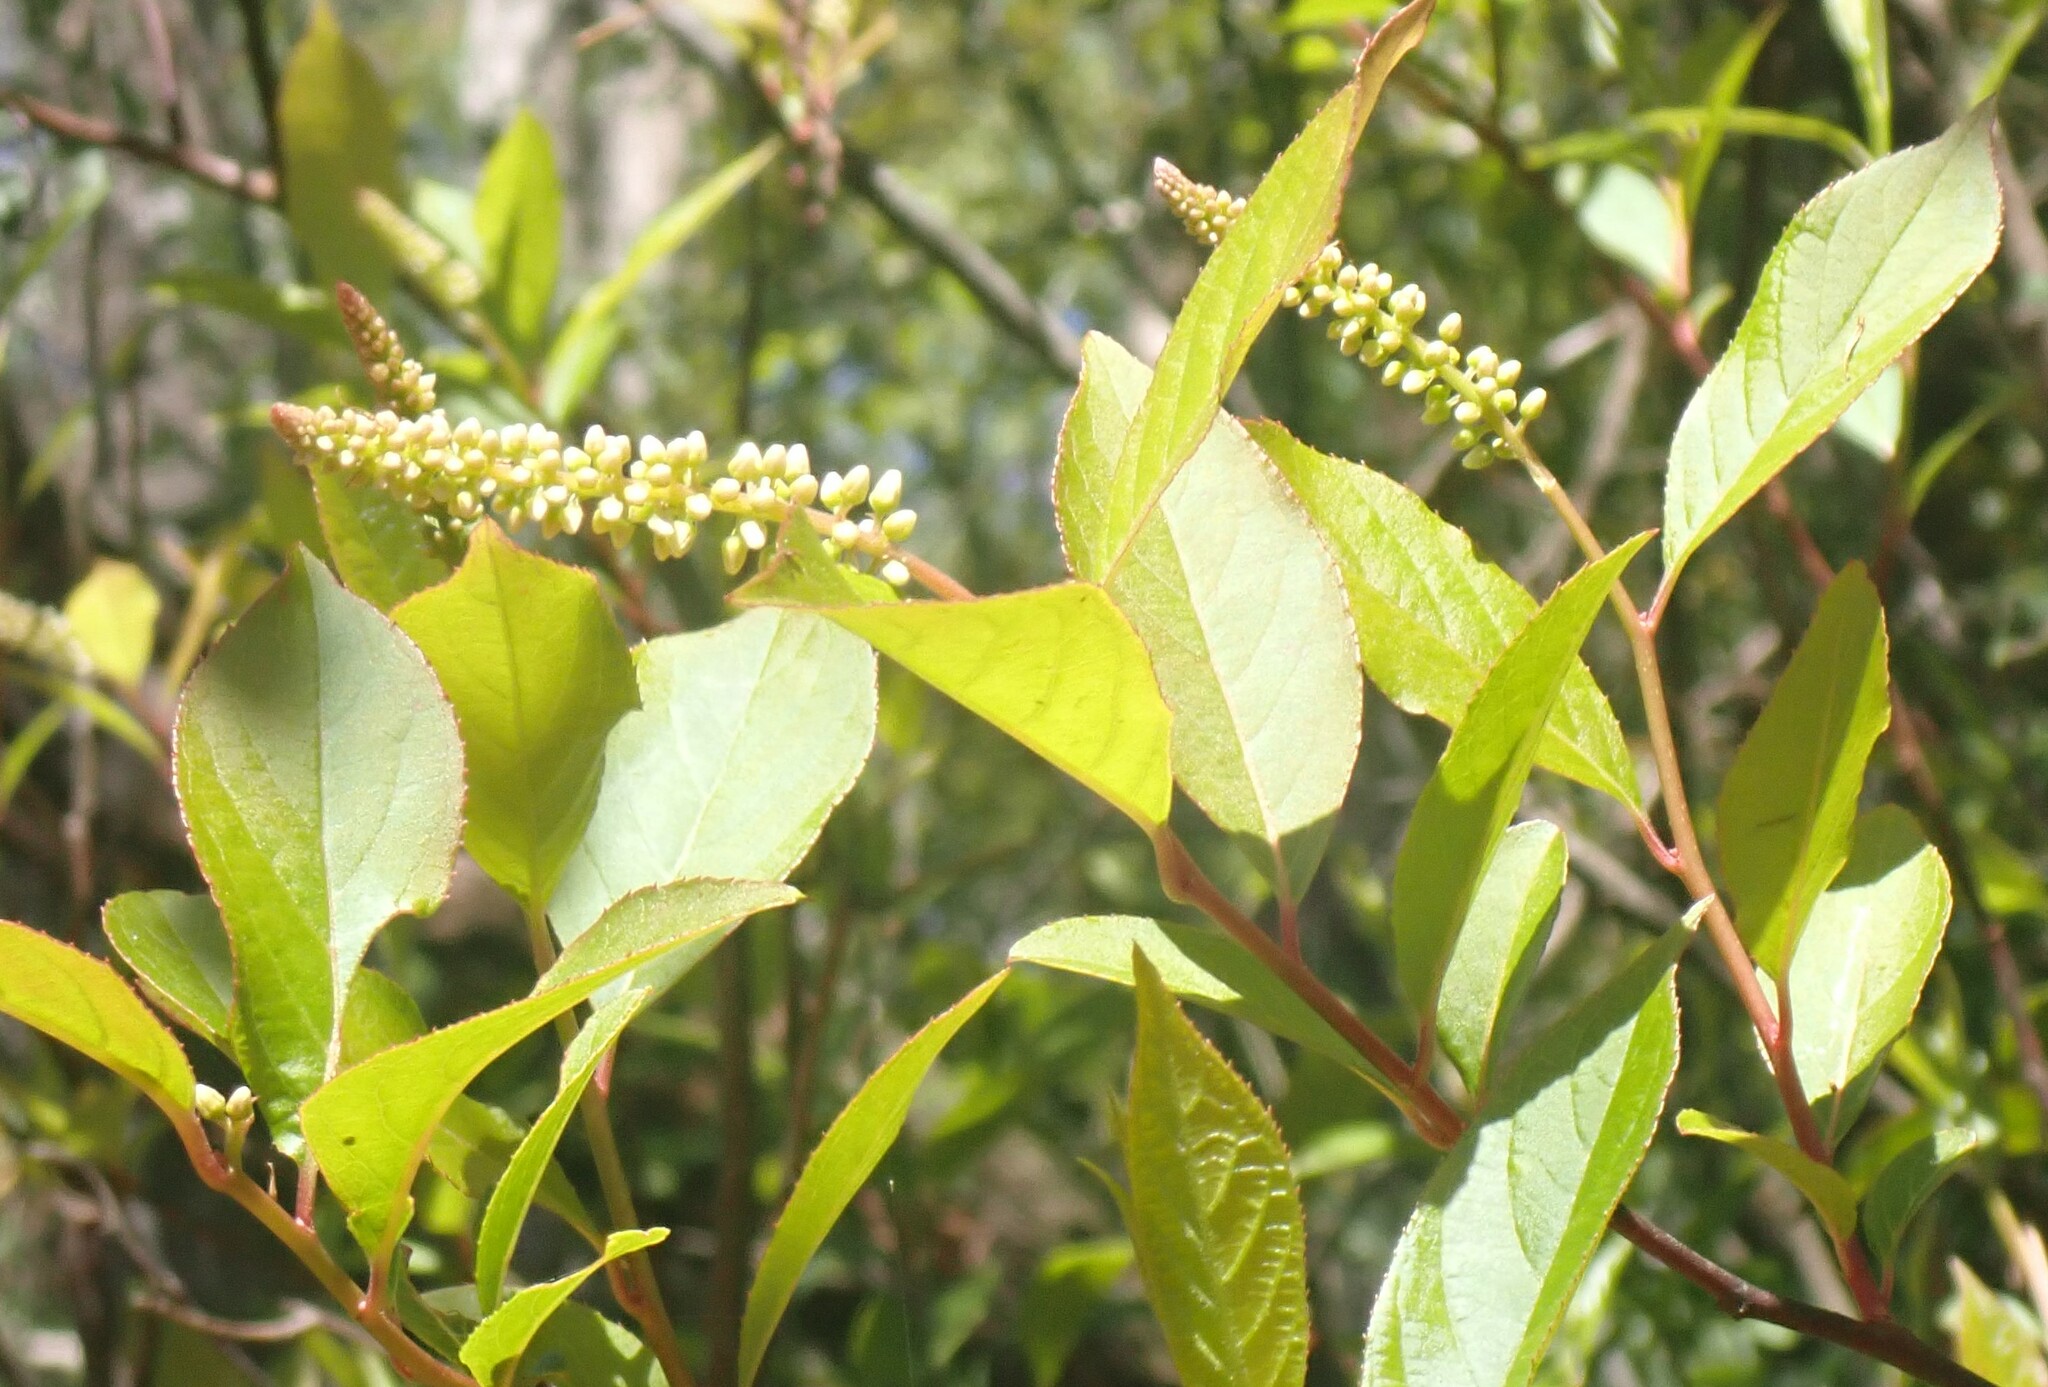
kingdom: Plantae
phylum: Tracheophyta
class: Magnoliopsida
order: Saxifragales
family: Iteaceae
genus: Itea
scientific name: Itea virginica
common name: Sweetspire
